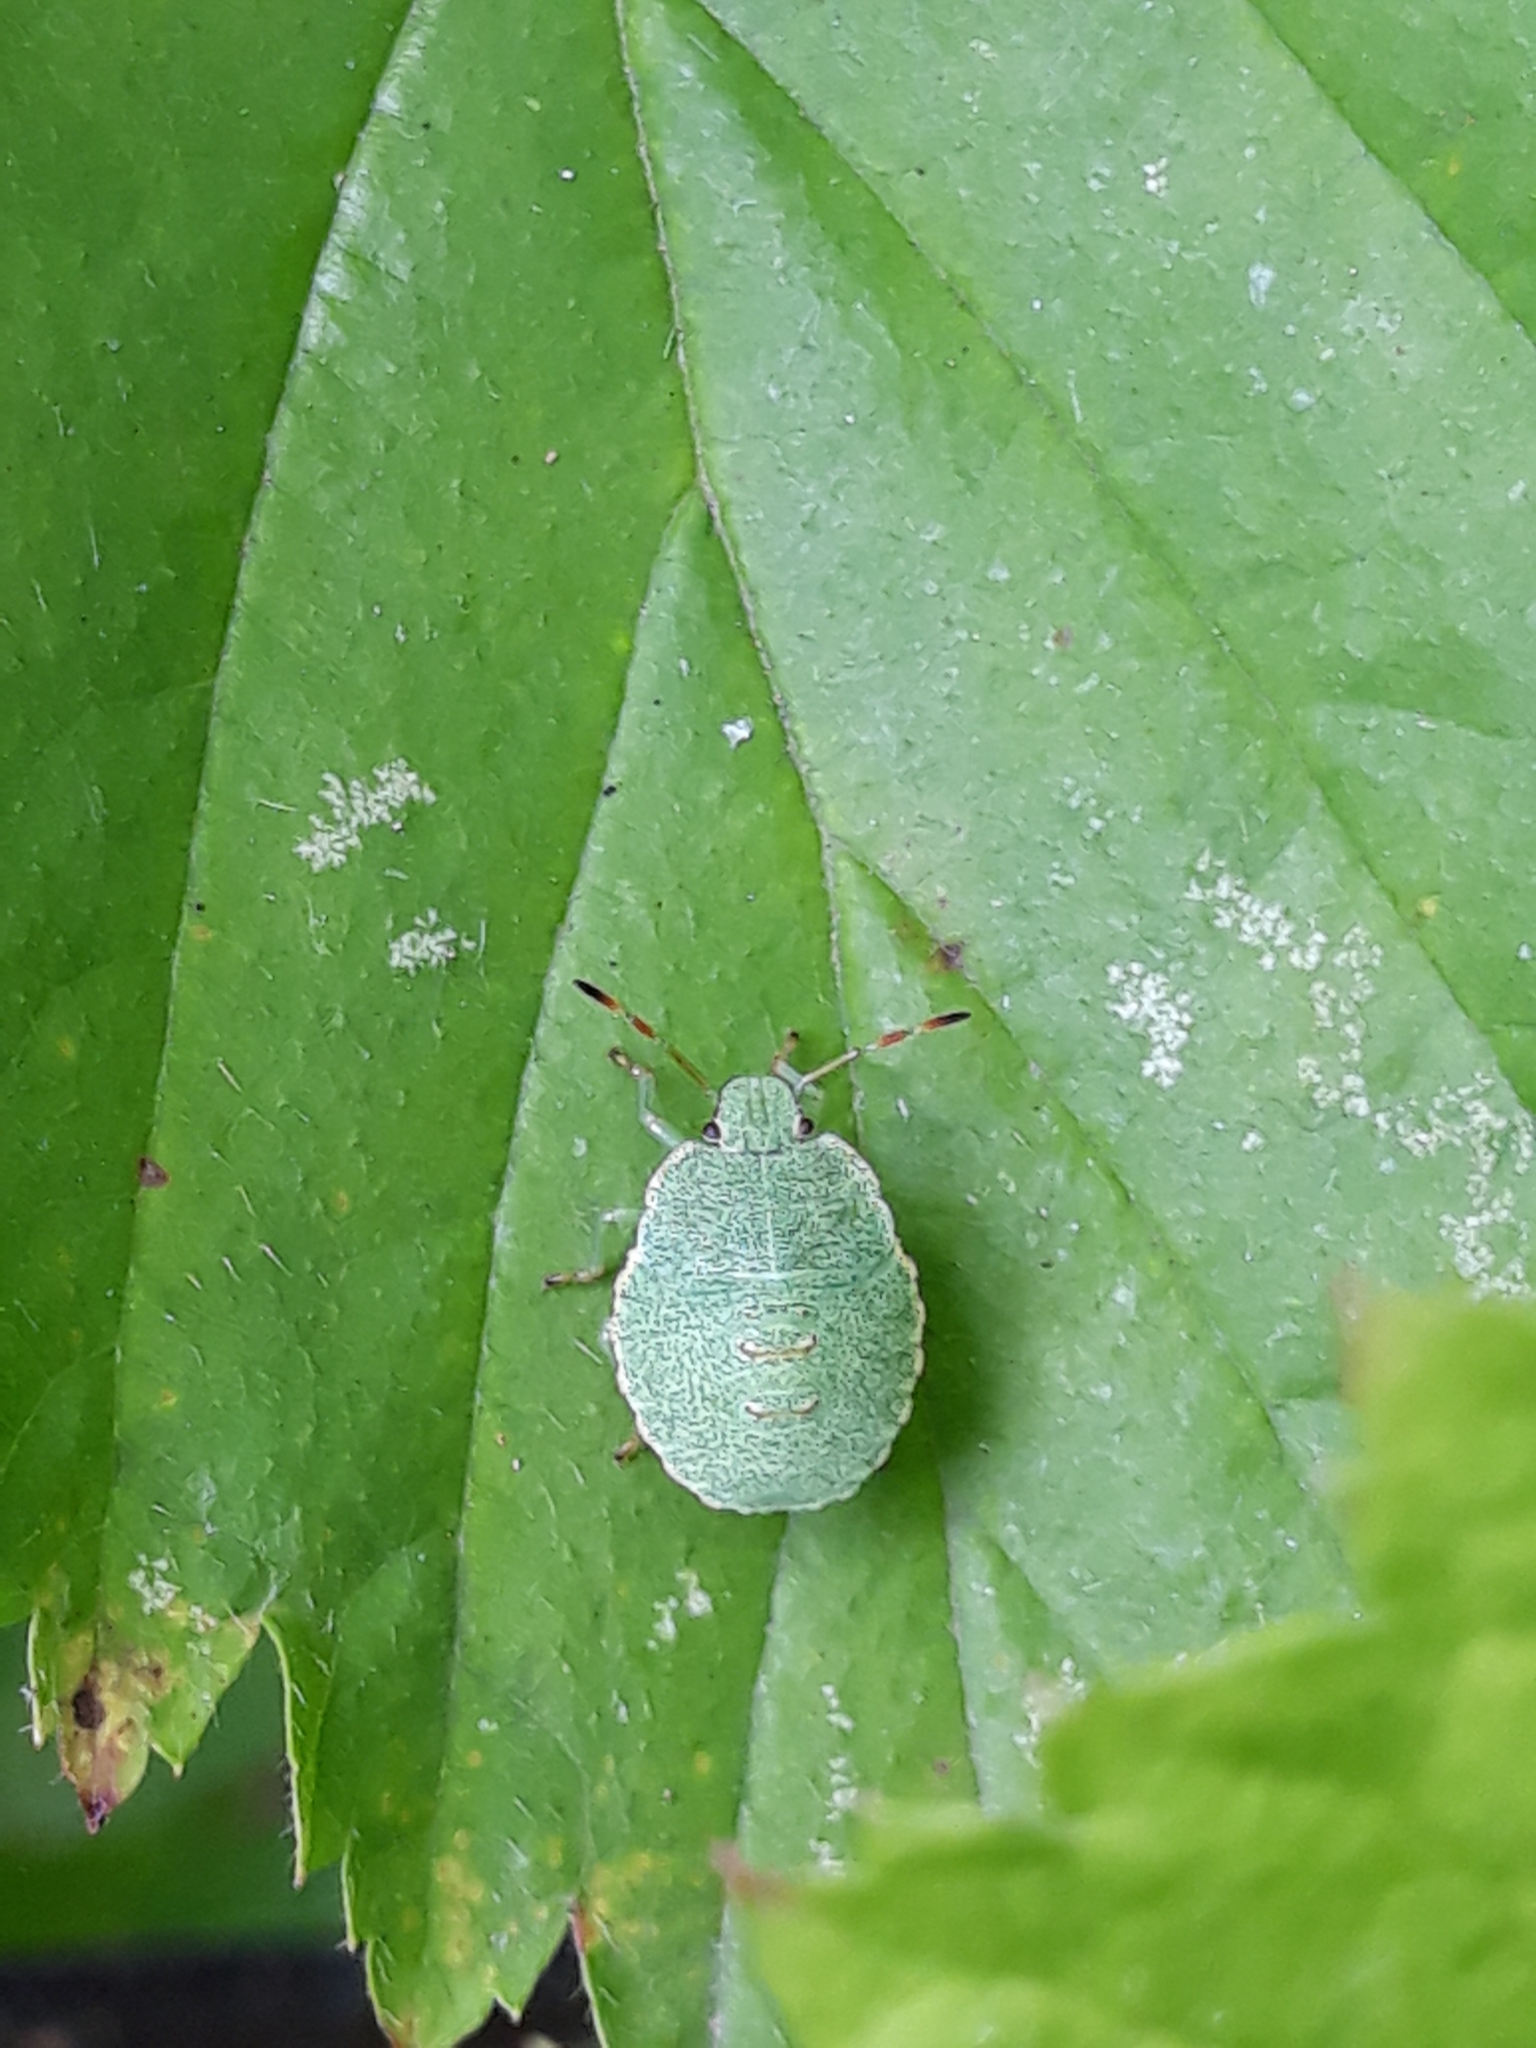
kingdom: Animalia
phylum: Arthropoda
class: Insecta
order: Hemiptera
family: Pentatomidae
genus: Palomena
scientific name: Palomena prasina
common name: Green shieldbug
